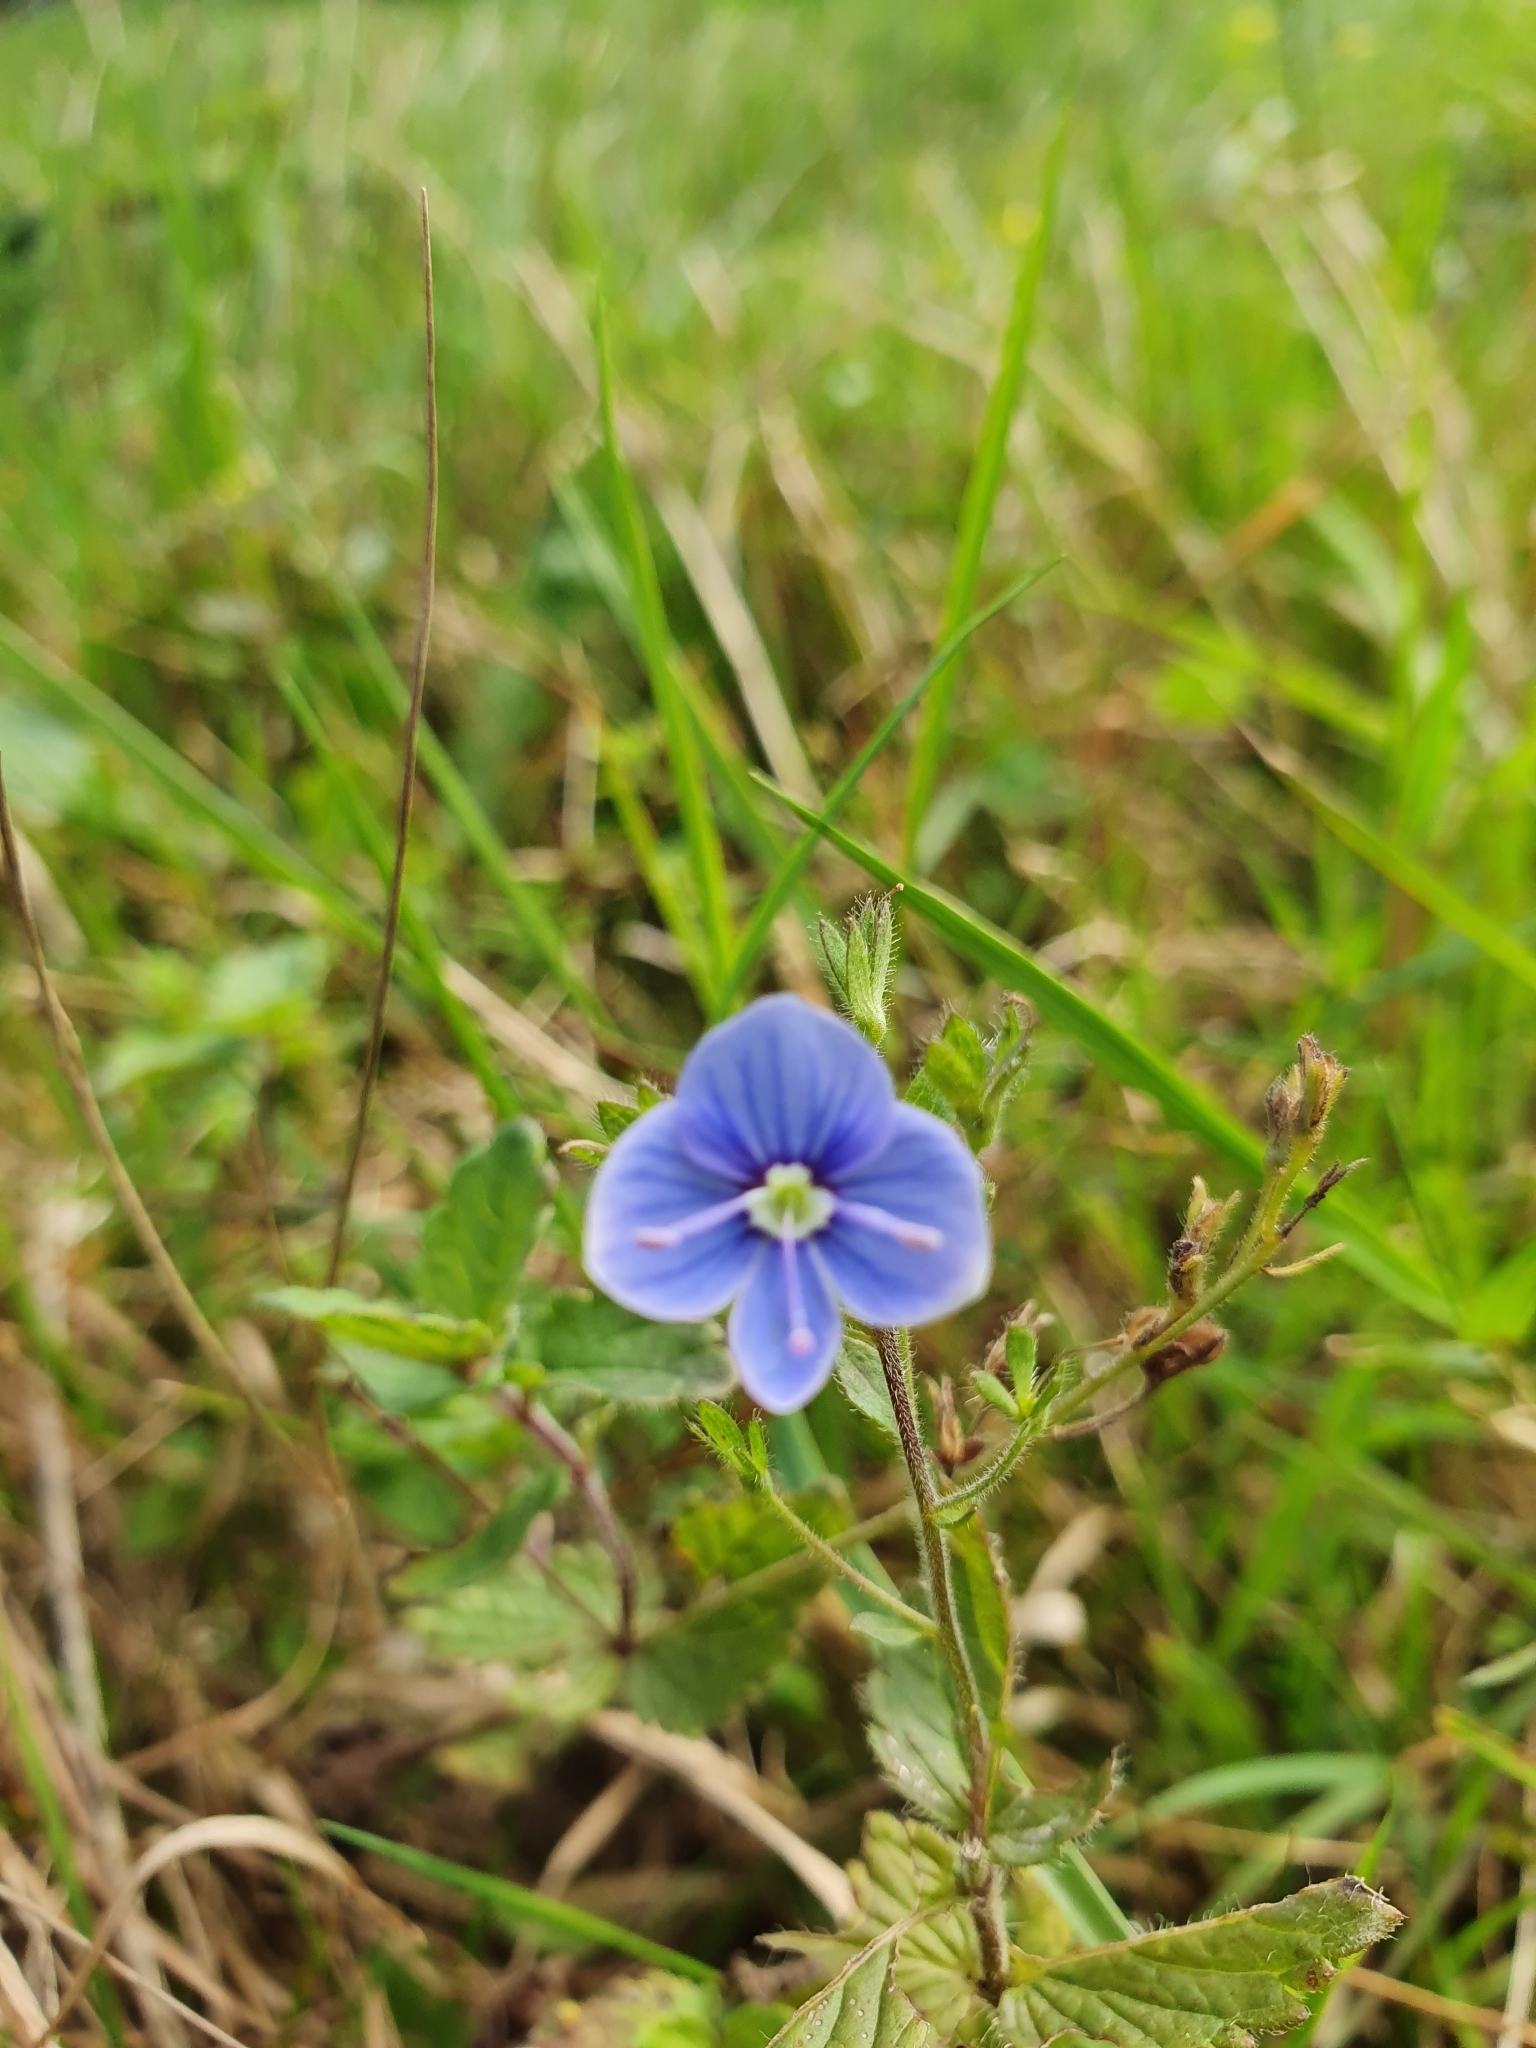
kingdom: Plantae
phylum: Tracheophyta
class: Magnoliopsida
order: Lamiales
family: Plantaginaceae
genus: Veronica
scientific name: Veronica chamaedrys
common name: Germander speedwell
